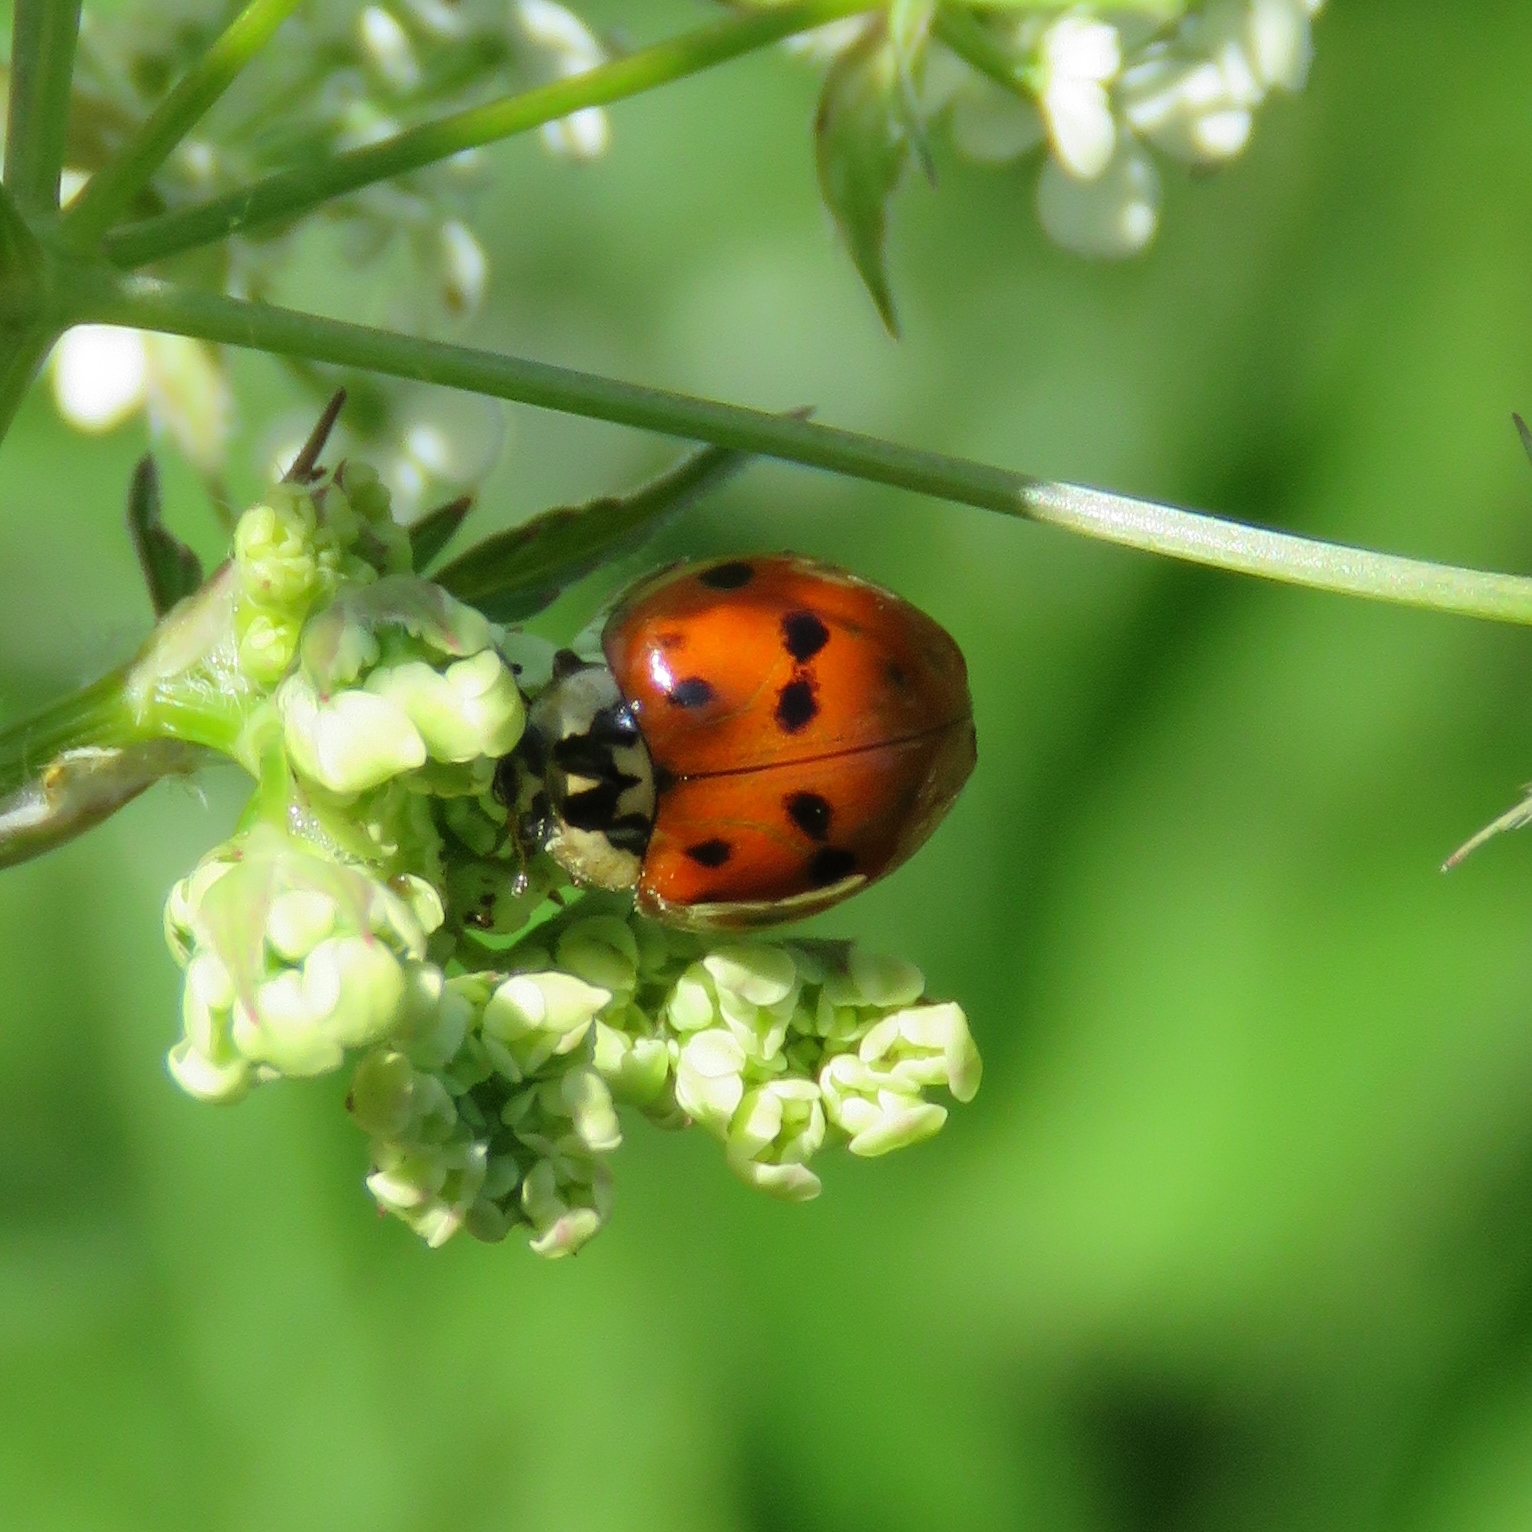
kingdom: Animalia
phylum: Arthropoda
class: Insecta
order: Coleoptera
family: Coccinellidae
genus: Harmonia
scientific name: Harmonia axyridis
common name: Harlequin ladybird
